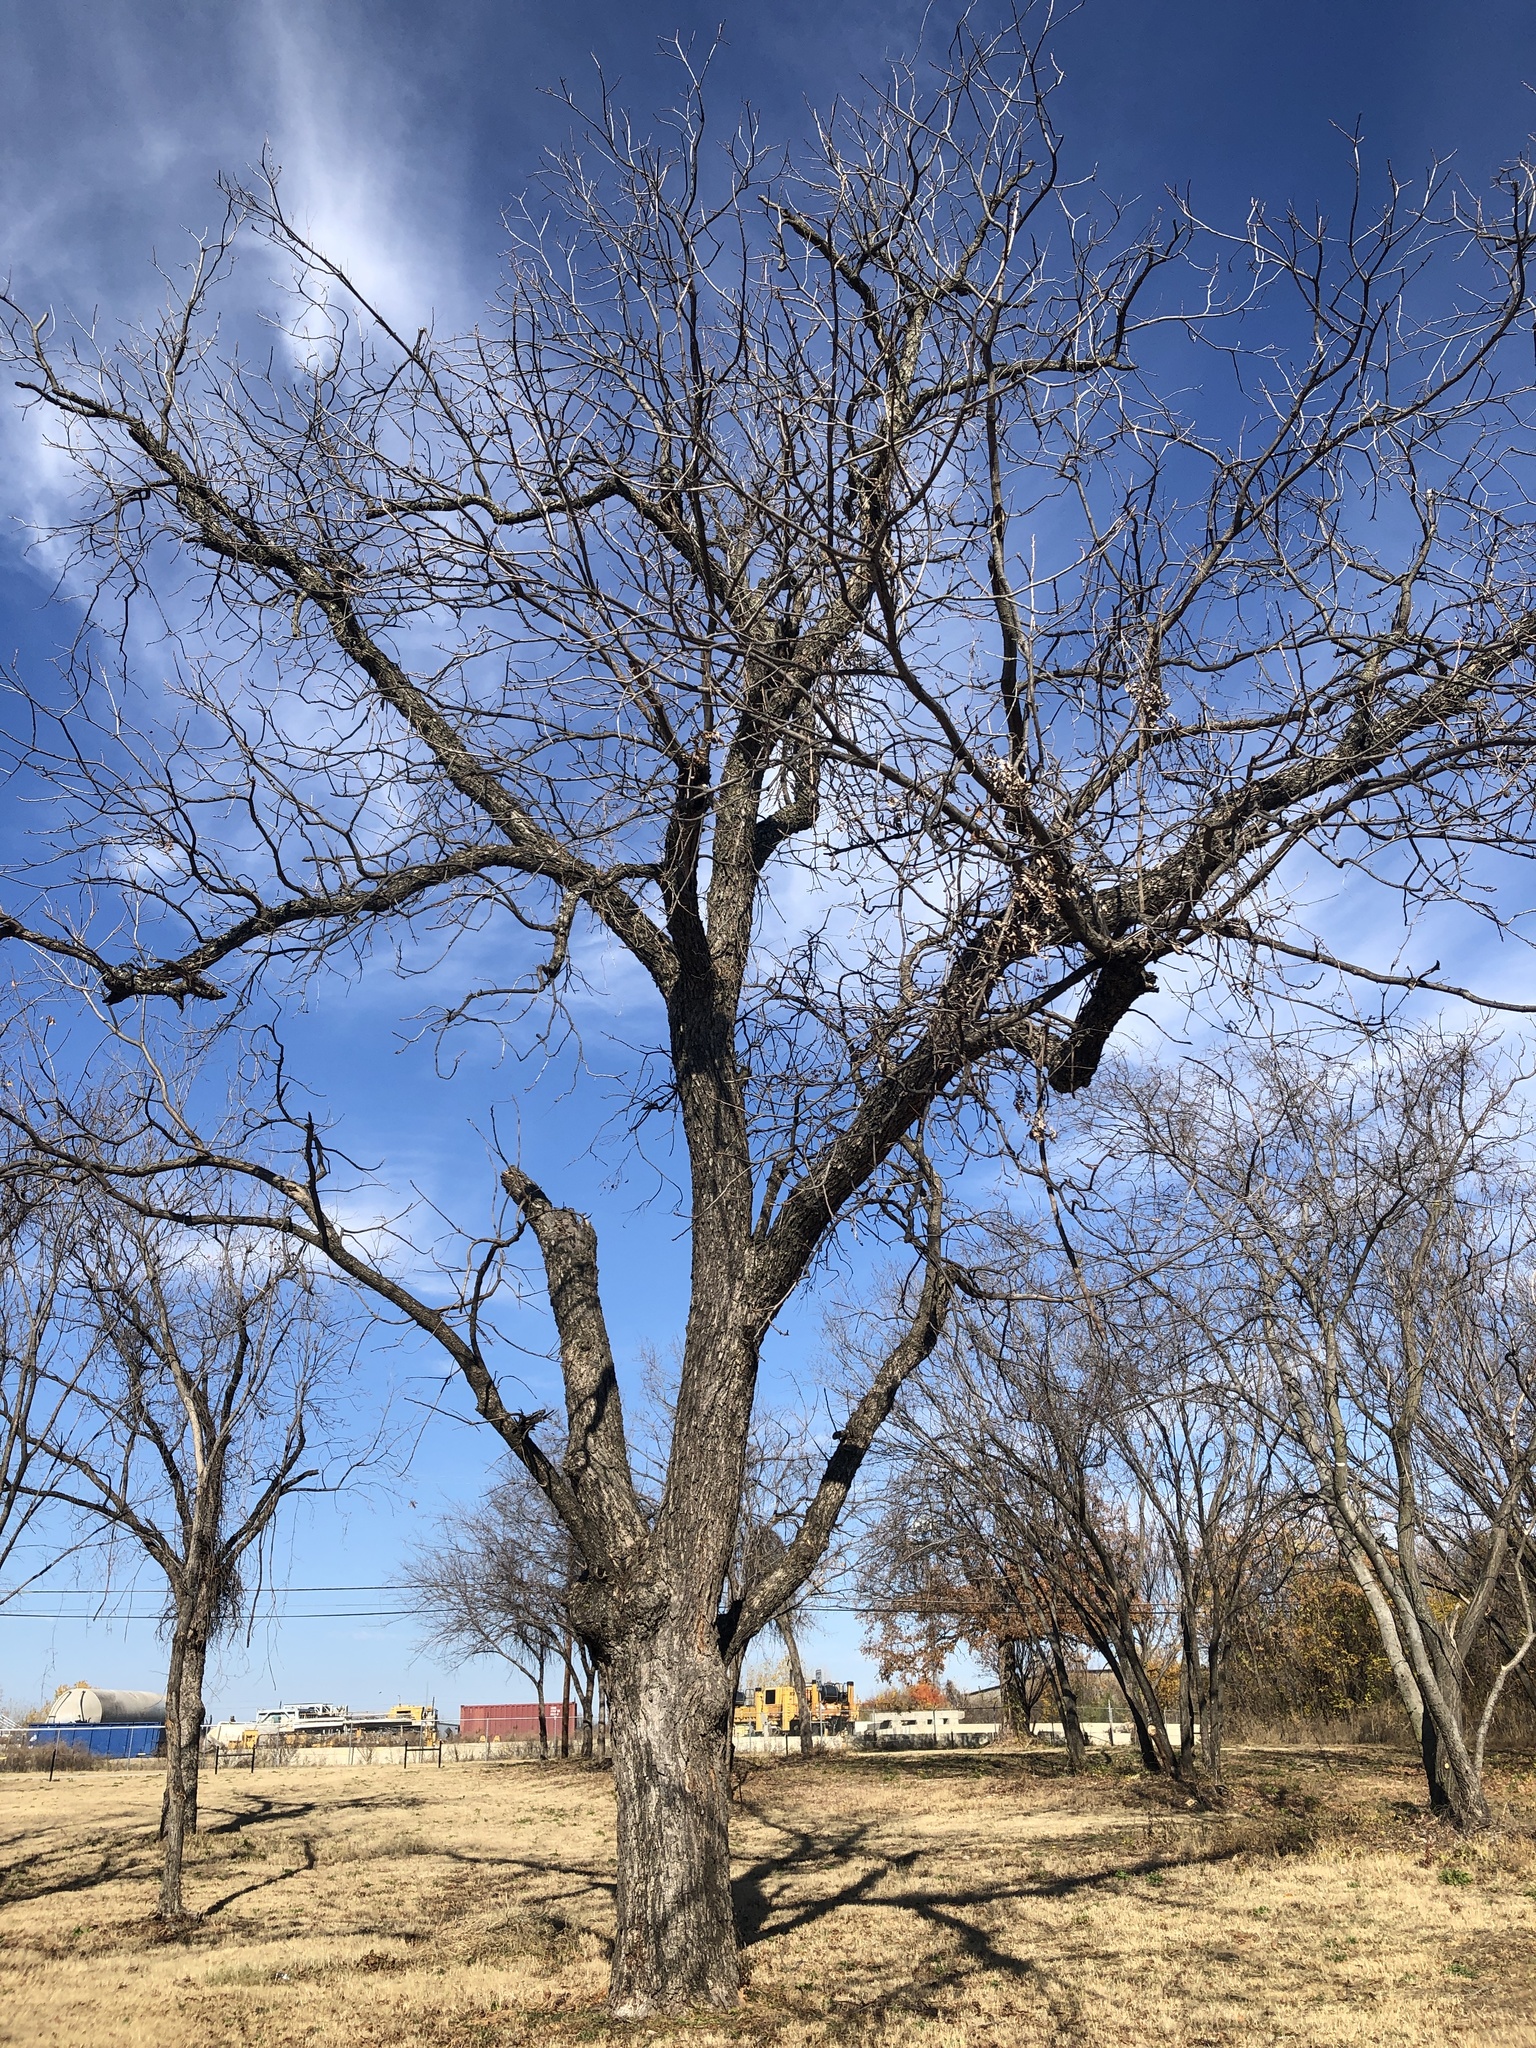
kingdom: Plantae
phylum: Tracheophyta
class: Magnoliopsida
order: Fagales
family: Juglandaceae
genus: Carya
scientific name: Carya illinoinensis
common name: Pecan
